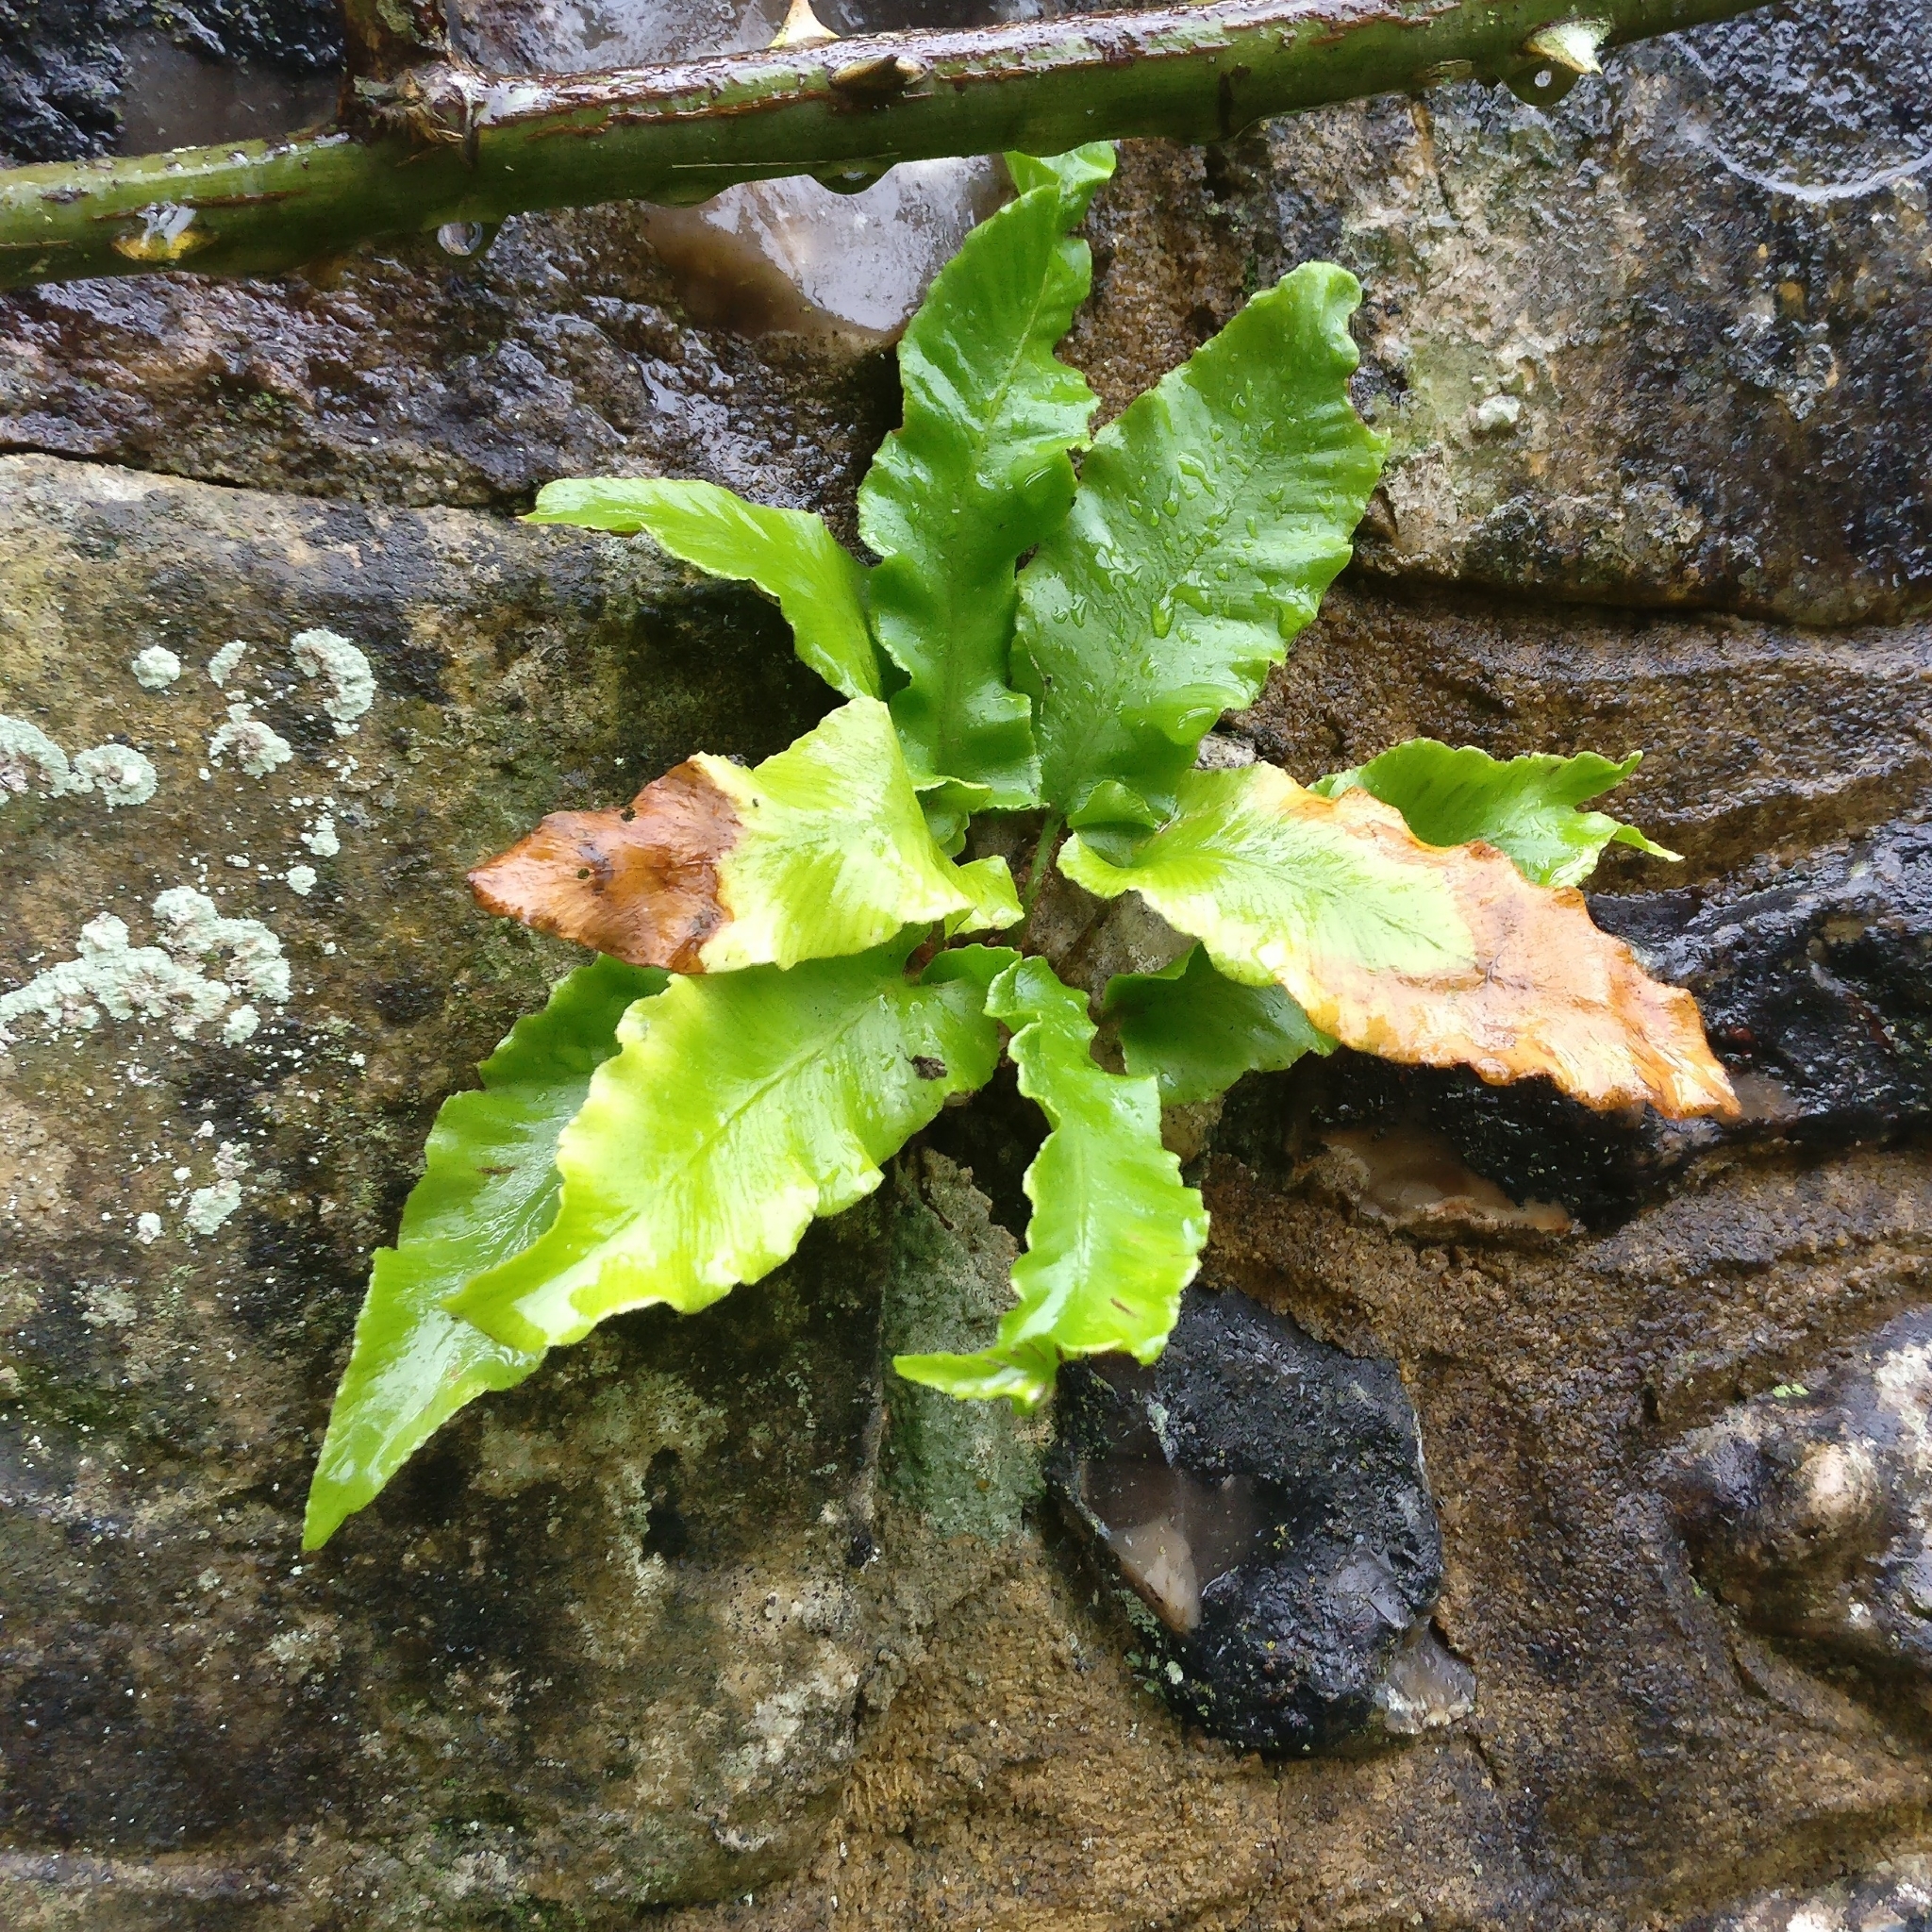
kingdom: Plantae
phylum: Tracheophyta
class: Polypodiopsida
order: Polypodiales
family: Aspleniaceae
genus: Asplenium
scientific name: Asplenium scolopendrium
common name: Hart's-tongue fern
